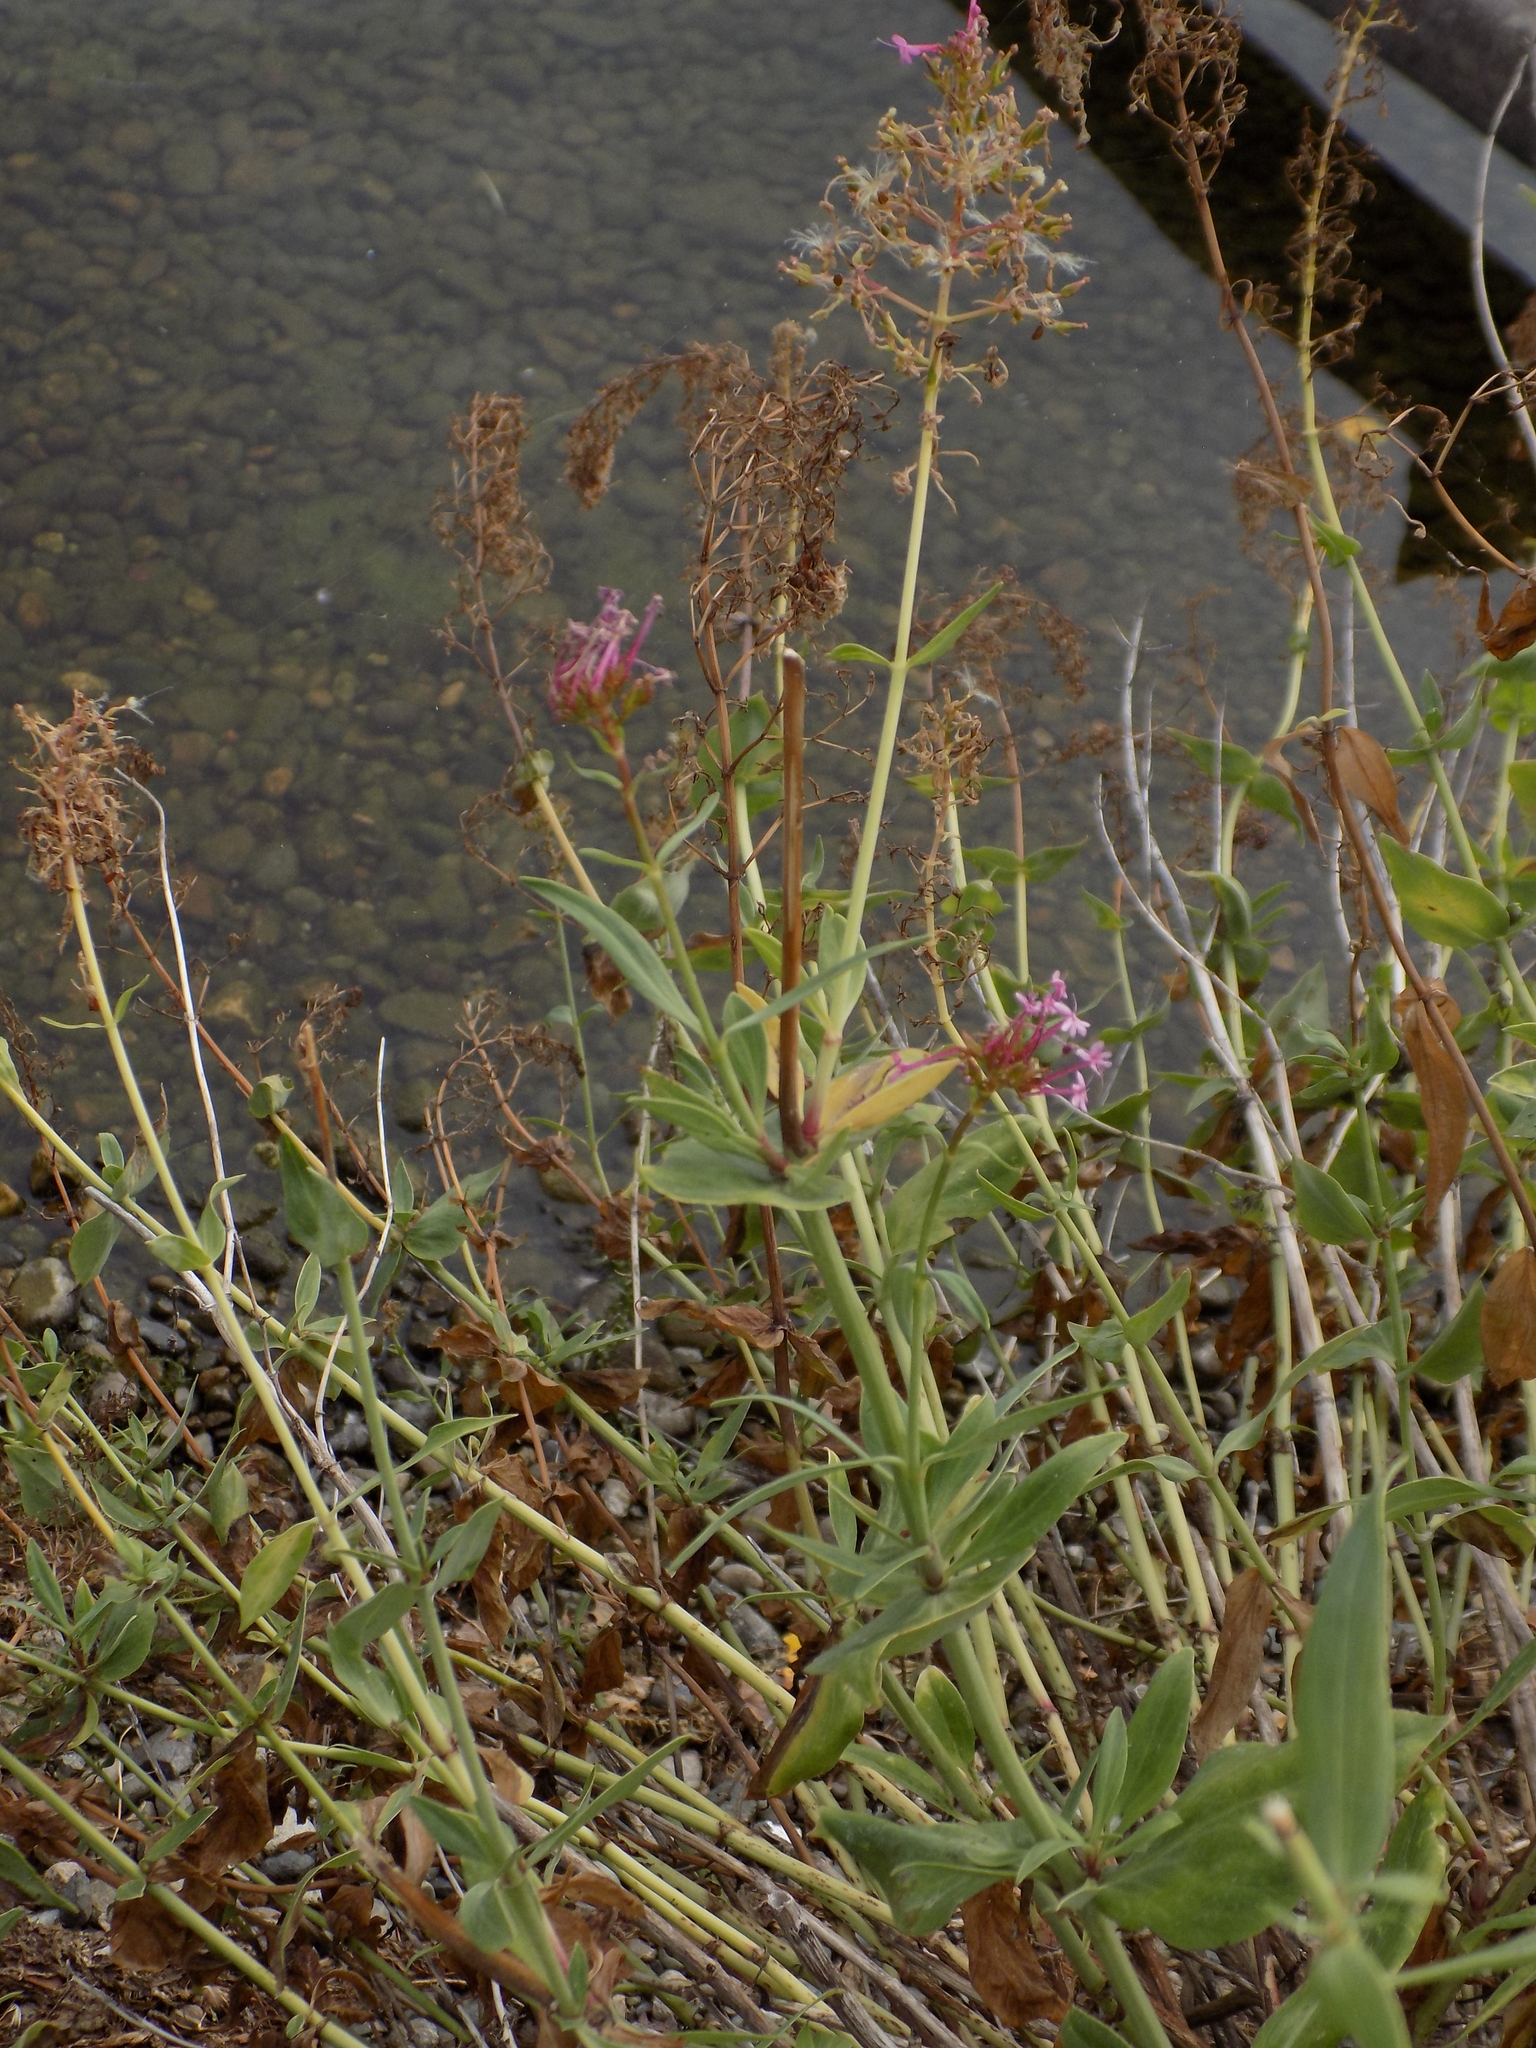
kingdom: Plantae
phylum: Tracheophyta
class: Magnoliopsida
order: Dipsacales
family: Caprifoliaceae
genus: Centranthus
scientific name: Centranthus ruber
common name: Red valerian
